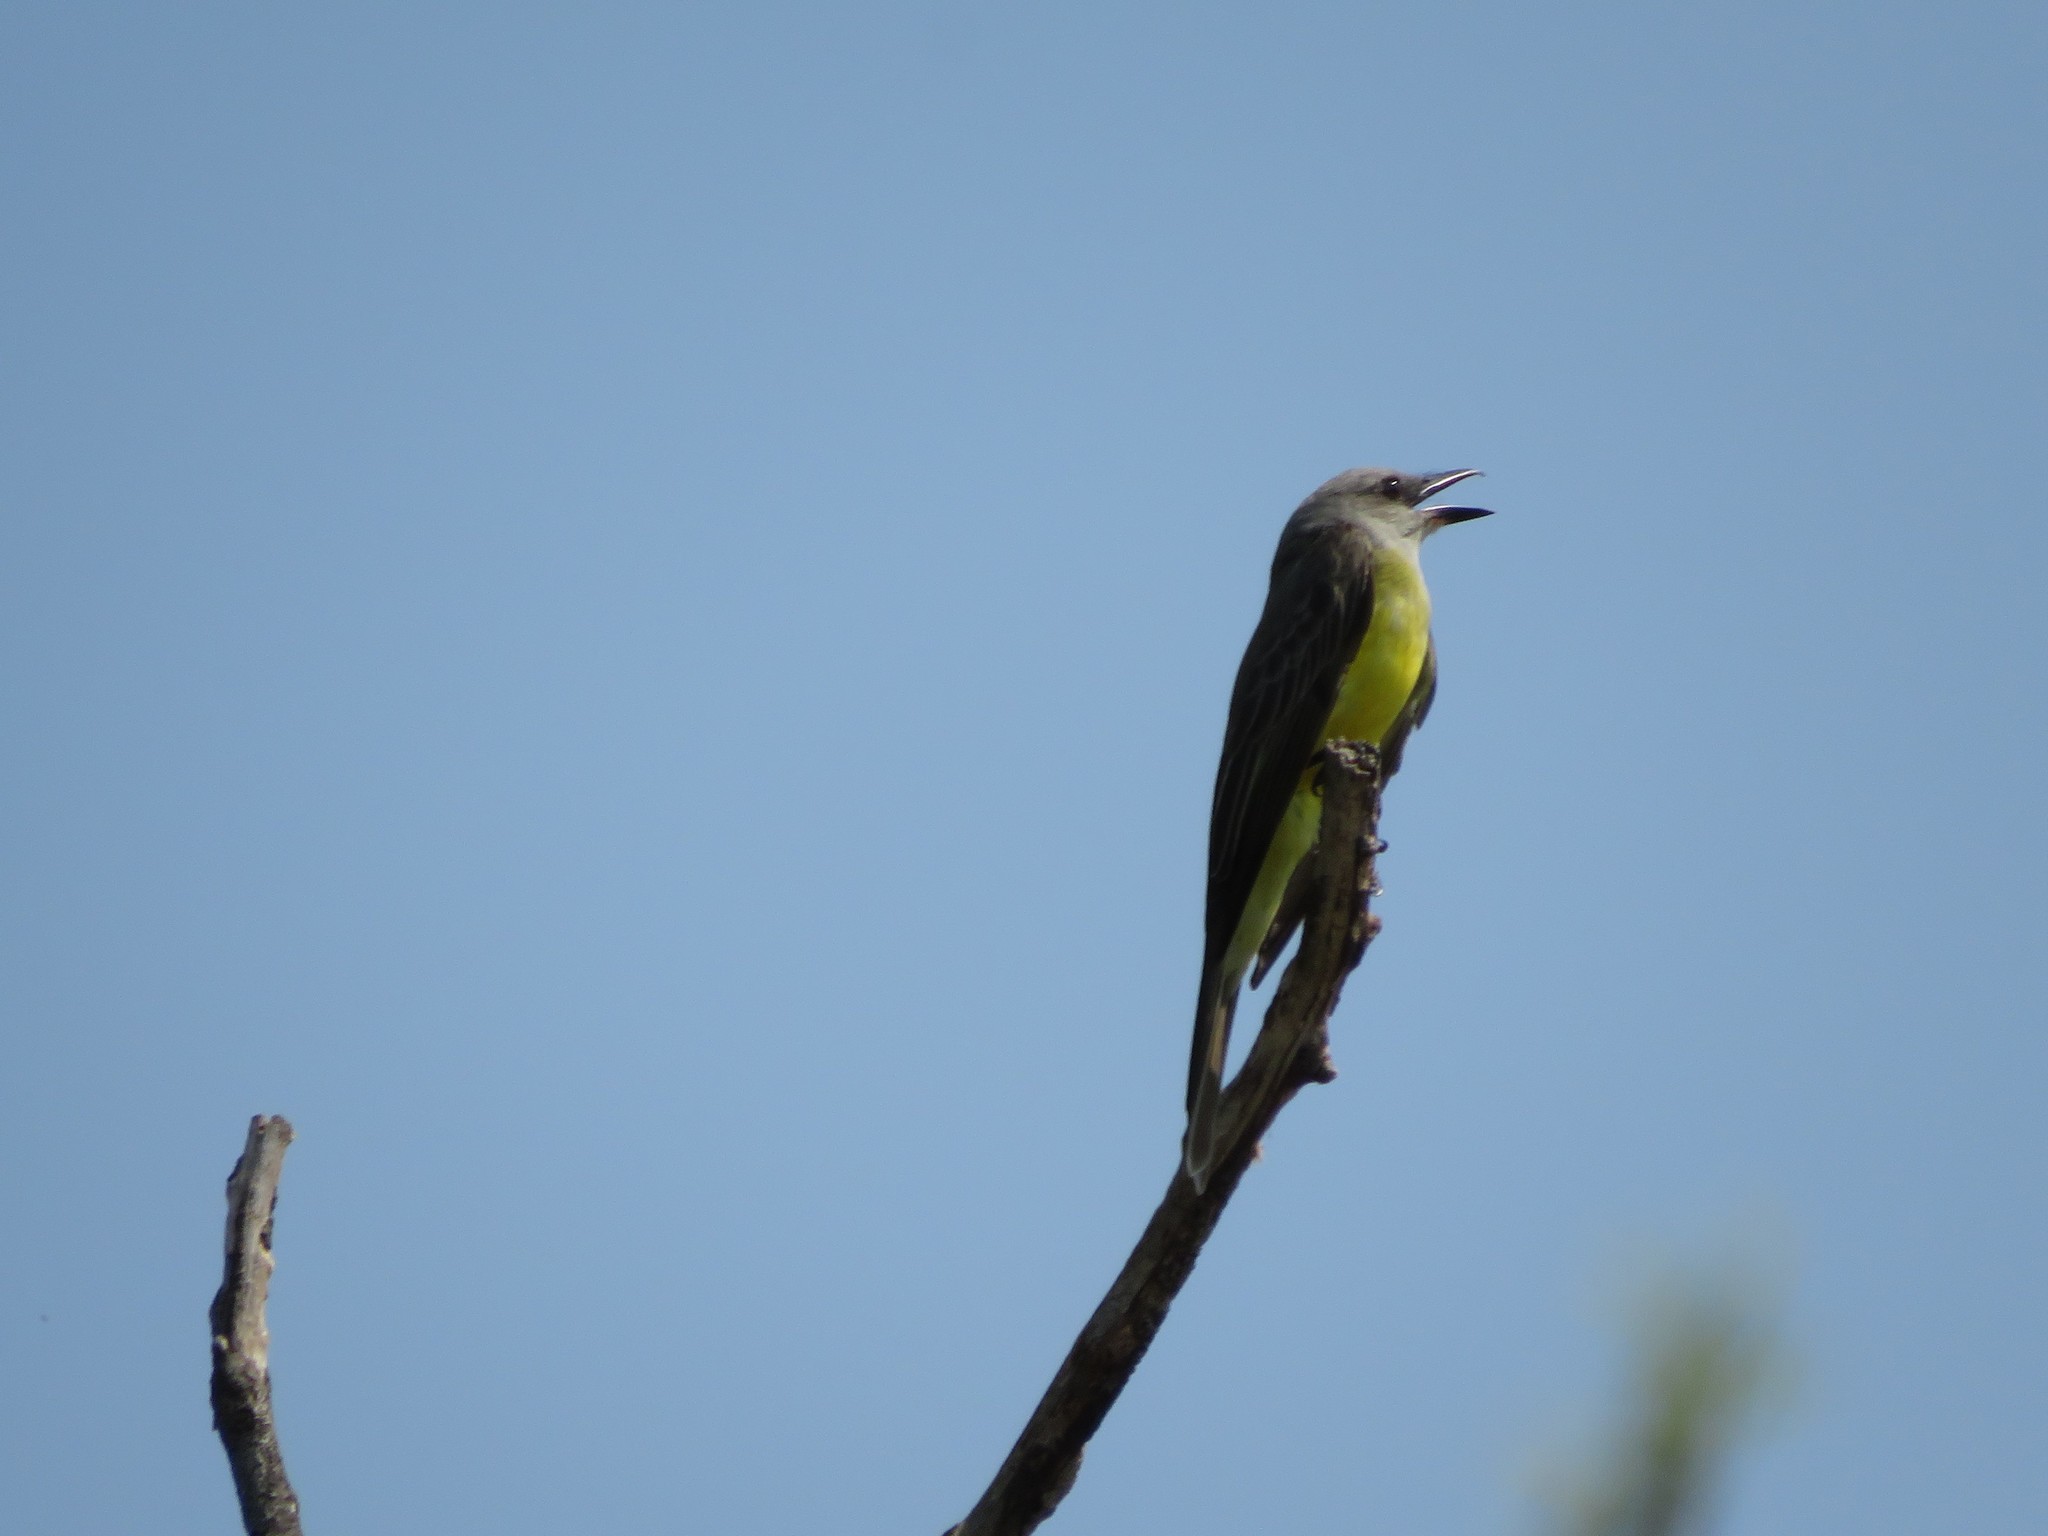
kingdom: Animalia
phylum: Chordata
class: Aves
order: Passeriformes
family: Tyrannidae
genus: Tyrannus
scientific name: Tyrannus melancholicus
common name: Tropical kingbird
